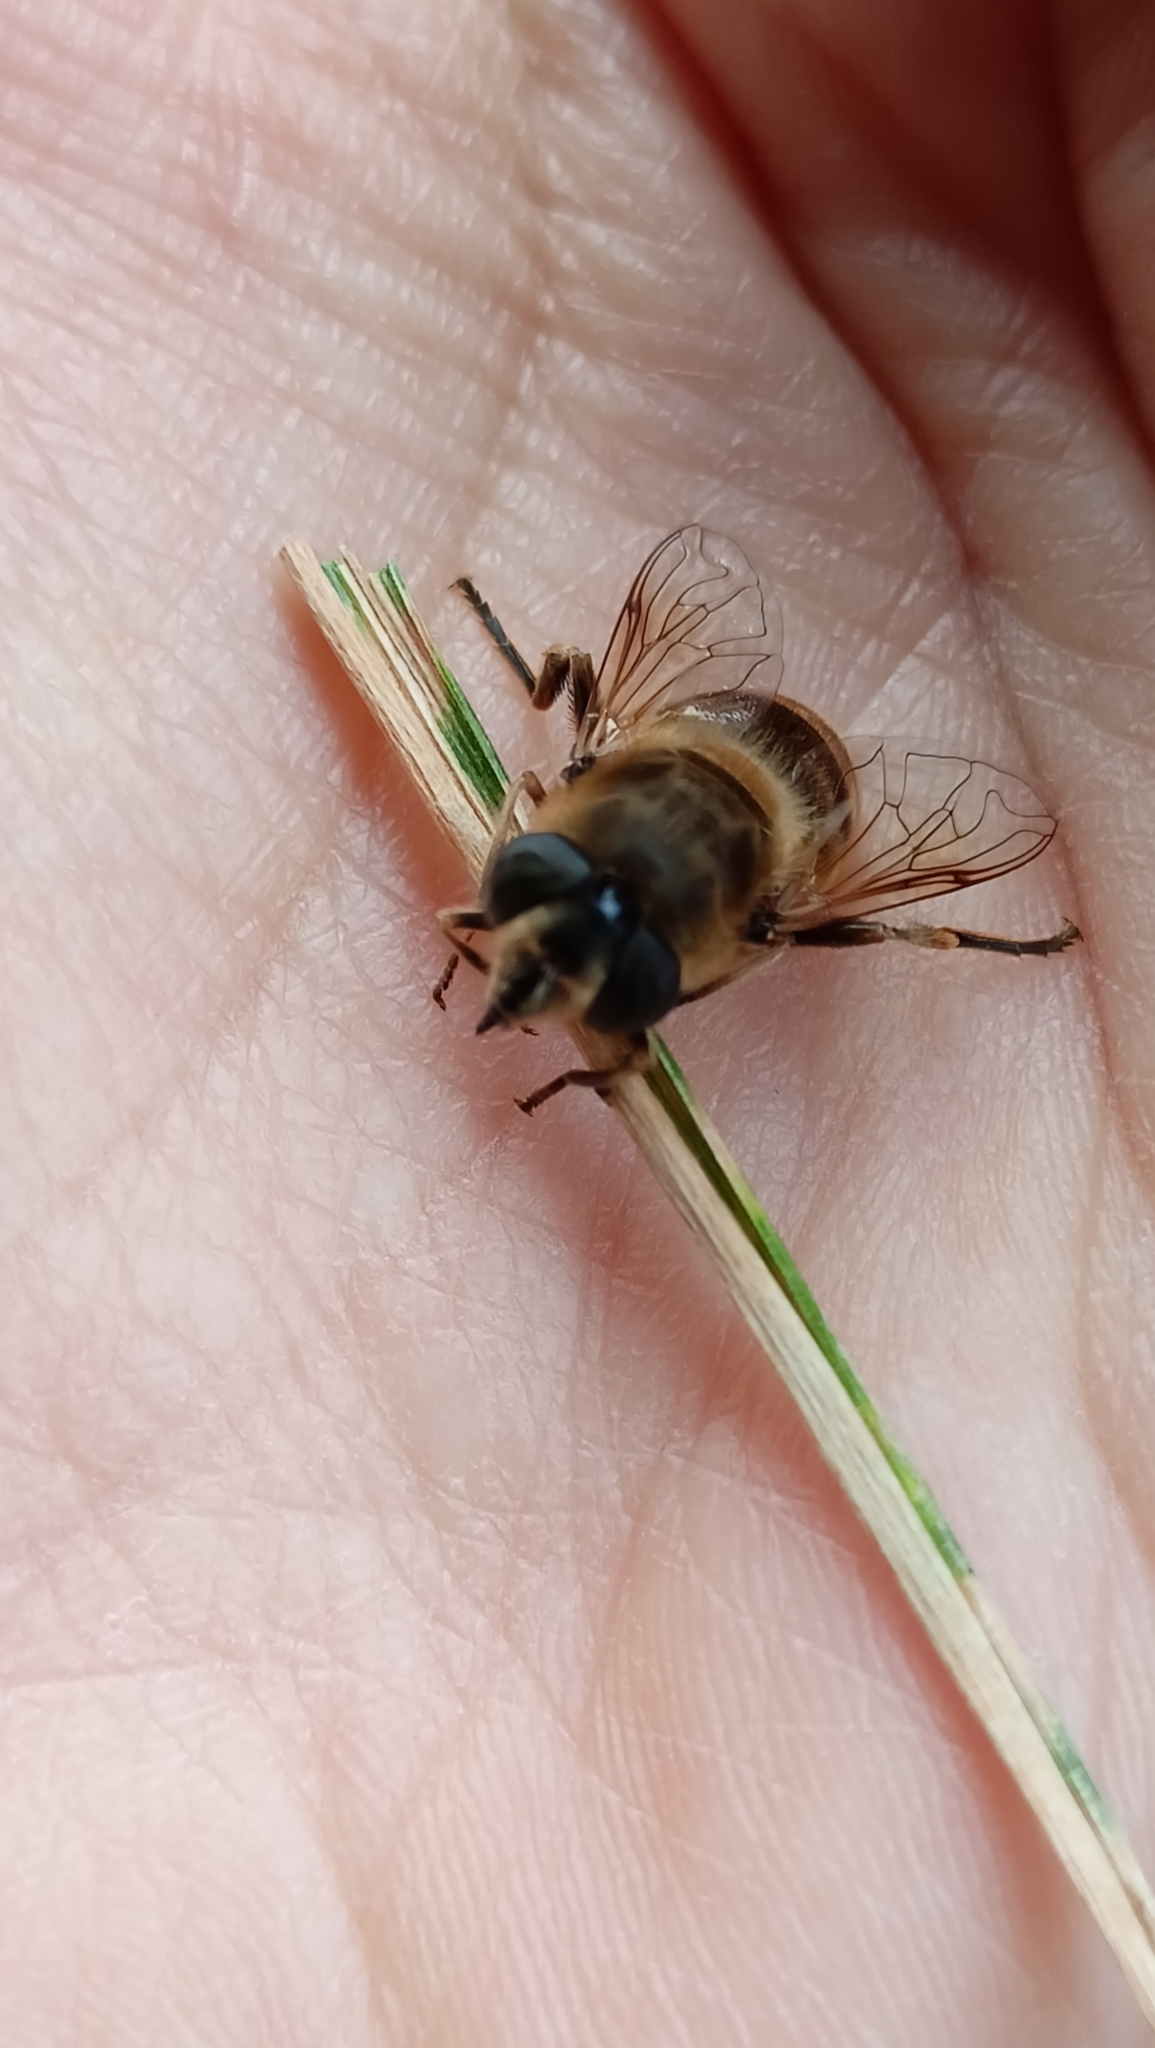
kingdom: Animalia
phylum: Arthropoda
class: Insecta
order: Diptera
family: Syrphidae
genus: Eristalis
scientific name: Eristalis tenax
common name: Drone fly
